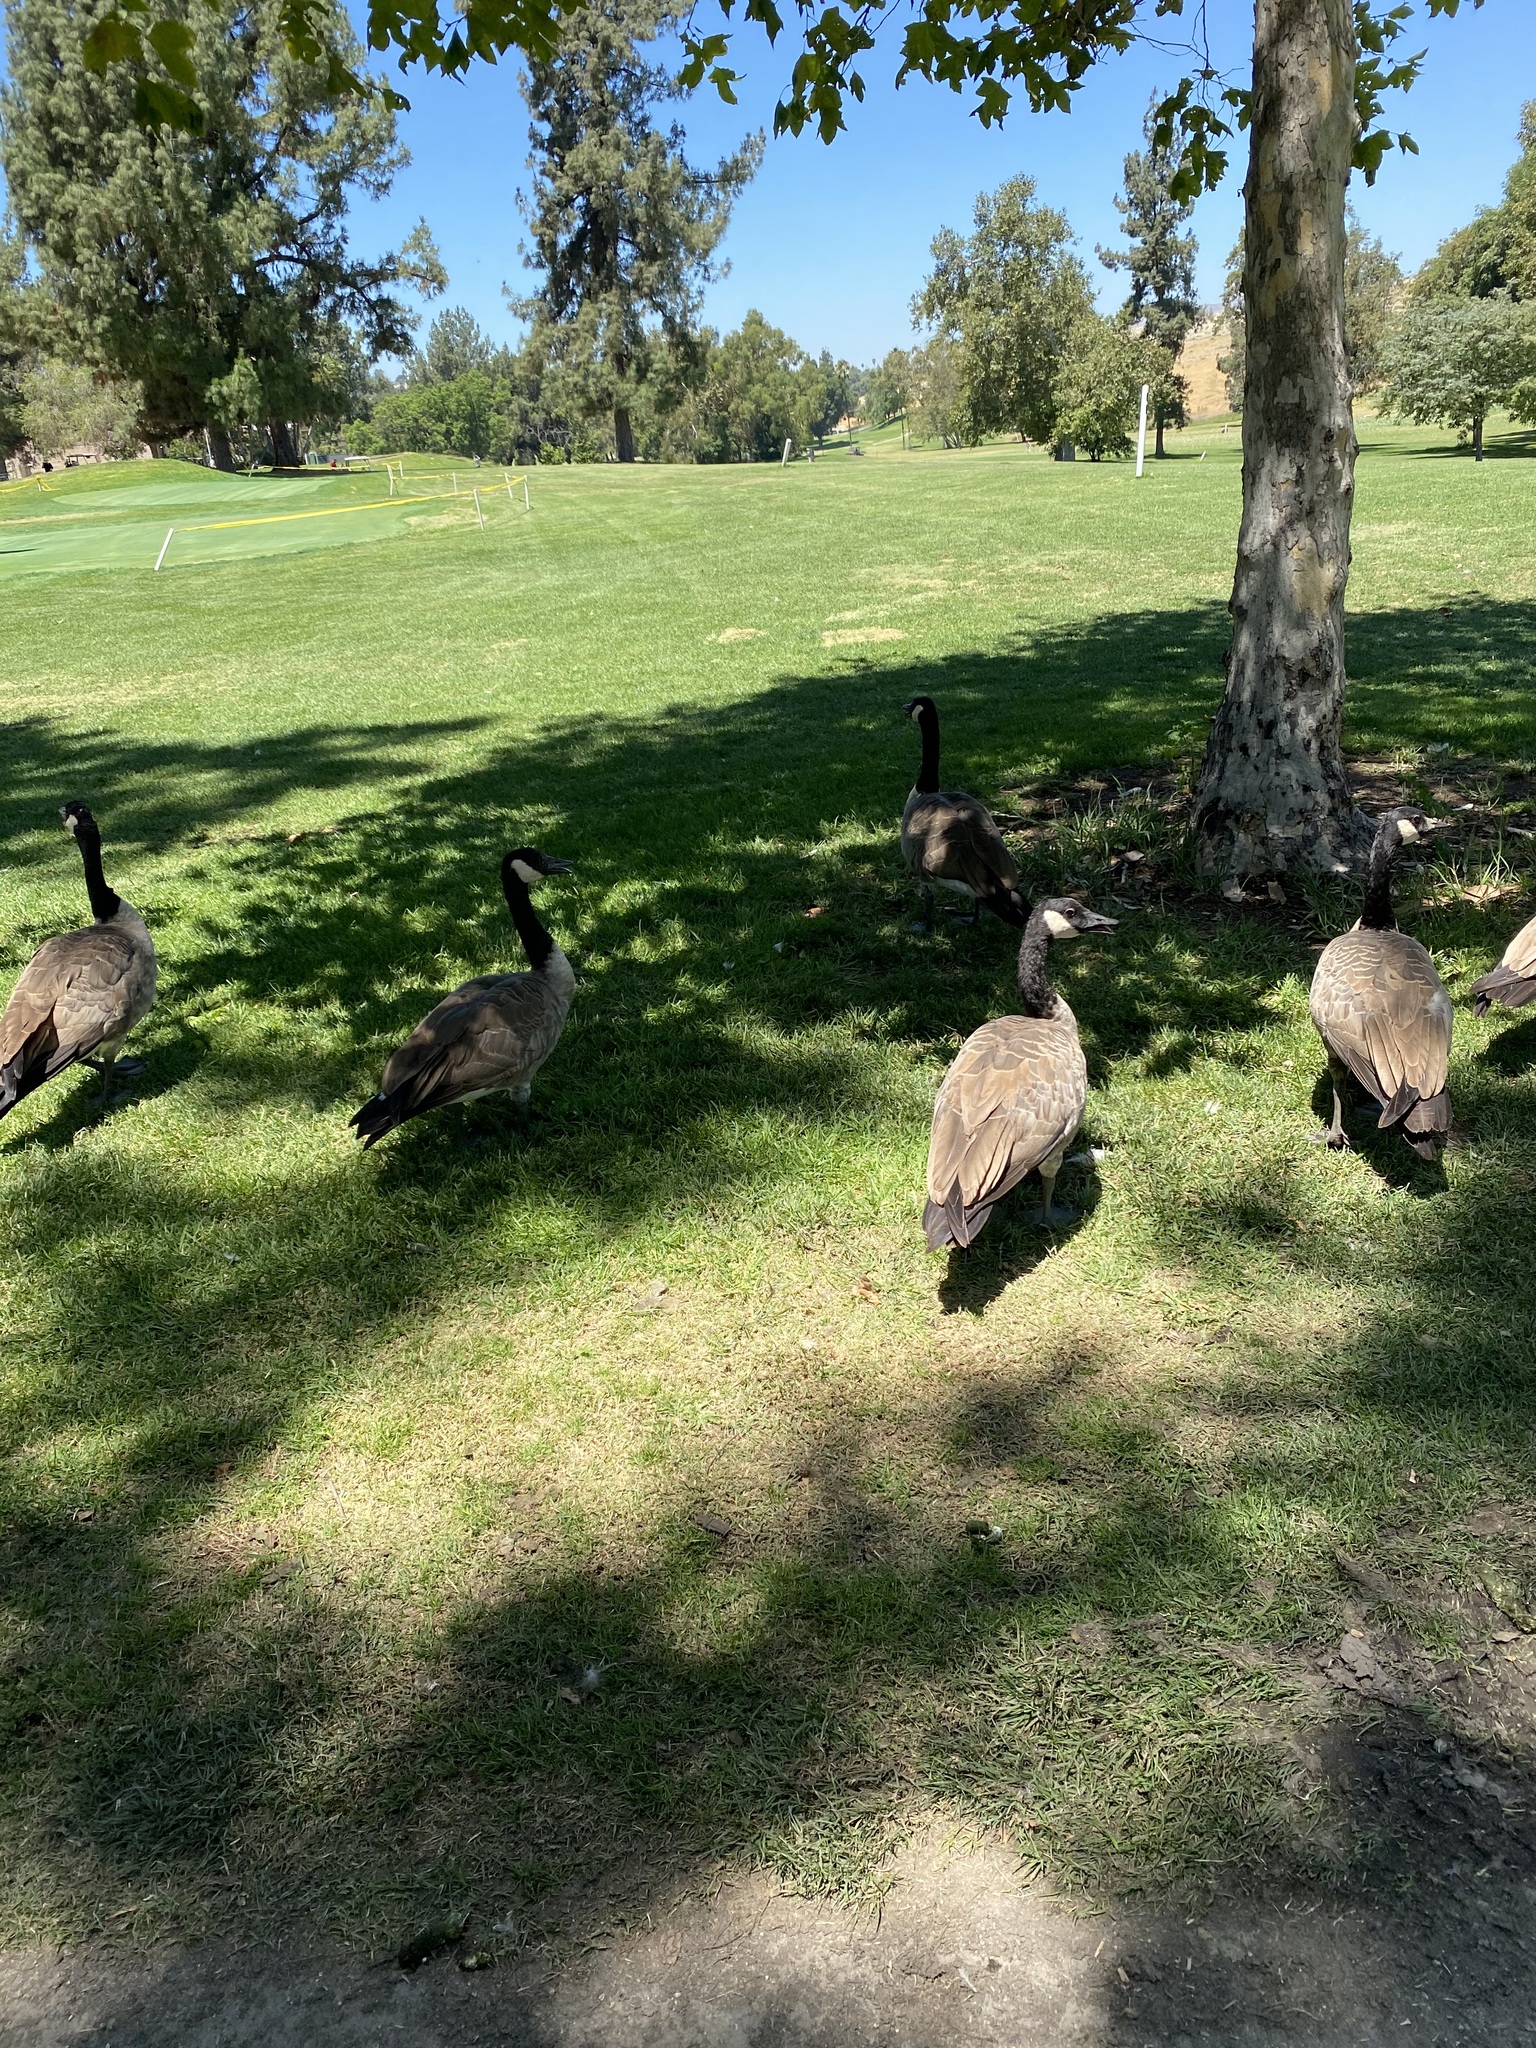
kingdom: Animalia
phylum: Chordata
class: Aves
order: Anseriformes
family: Anatidae
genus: Branta
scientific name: Branta canadensis
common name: Canada goose
